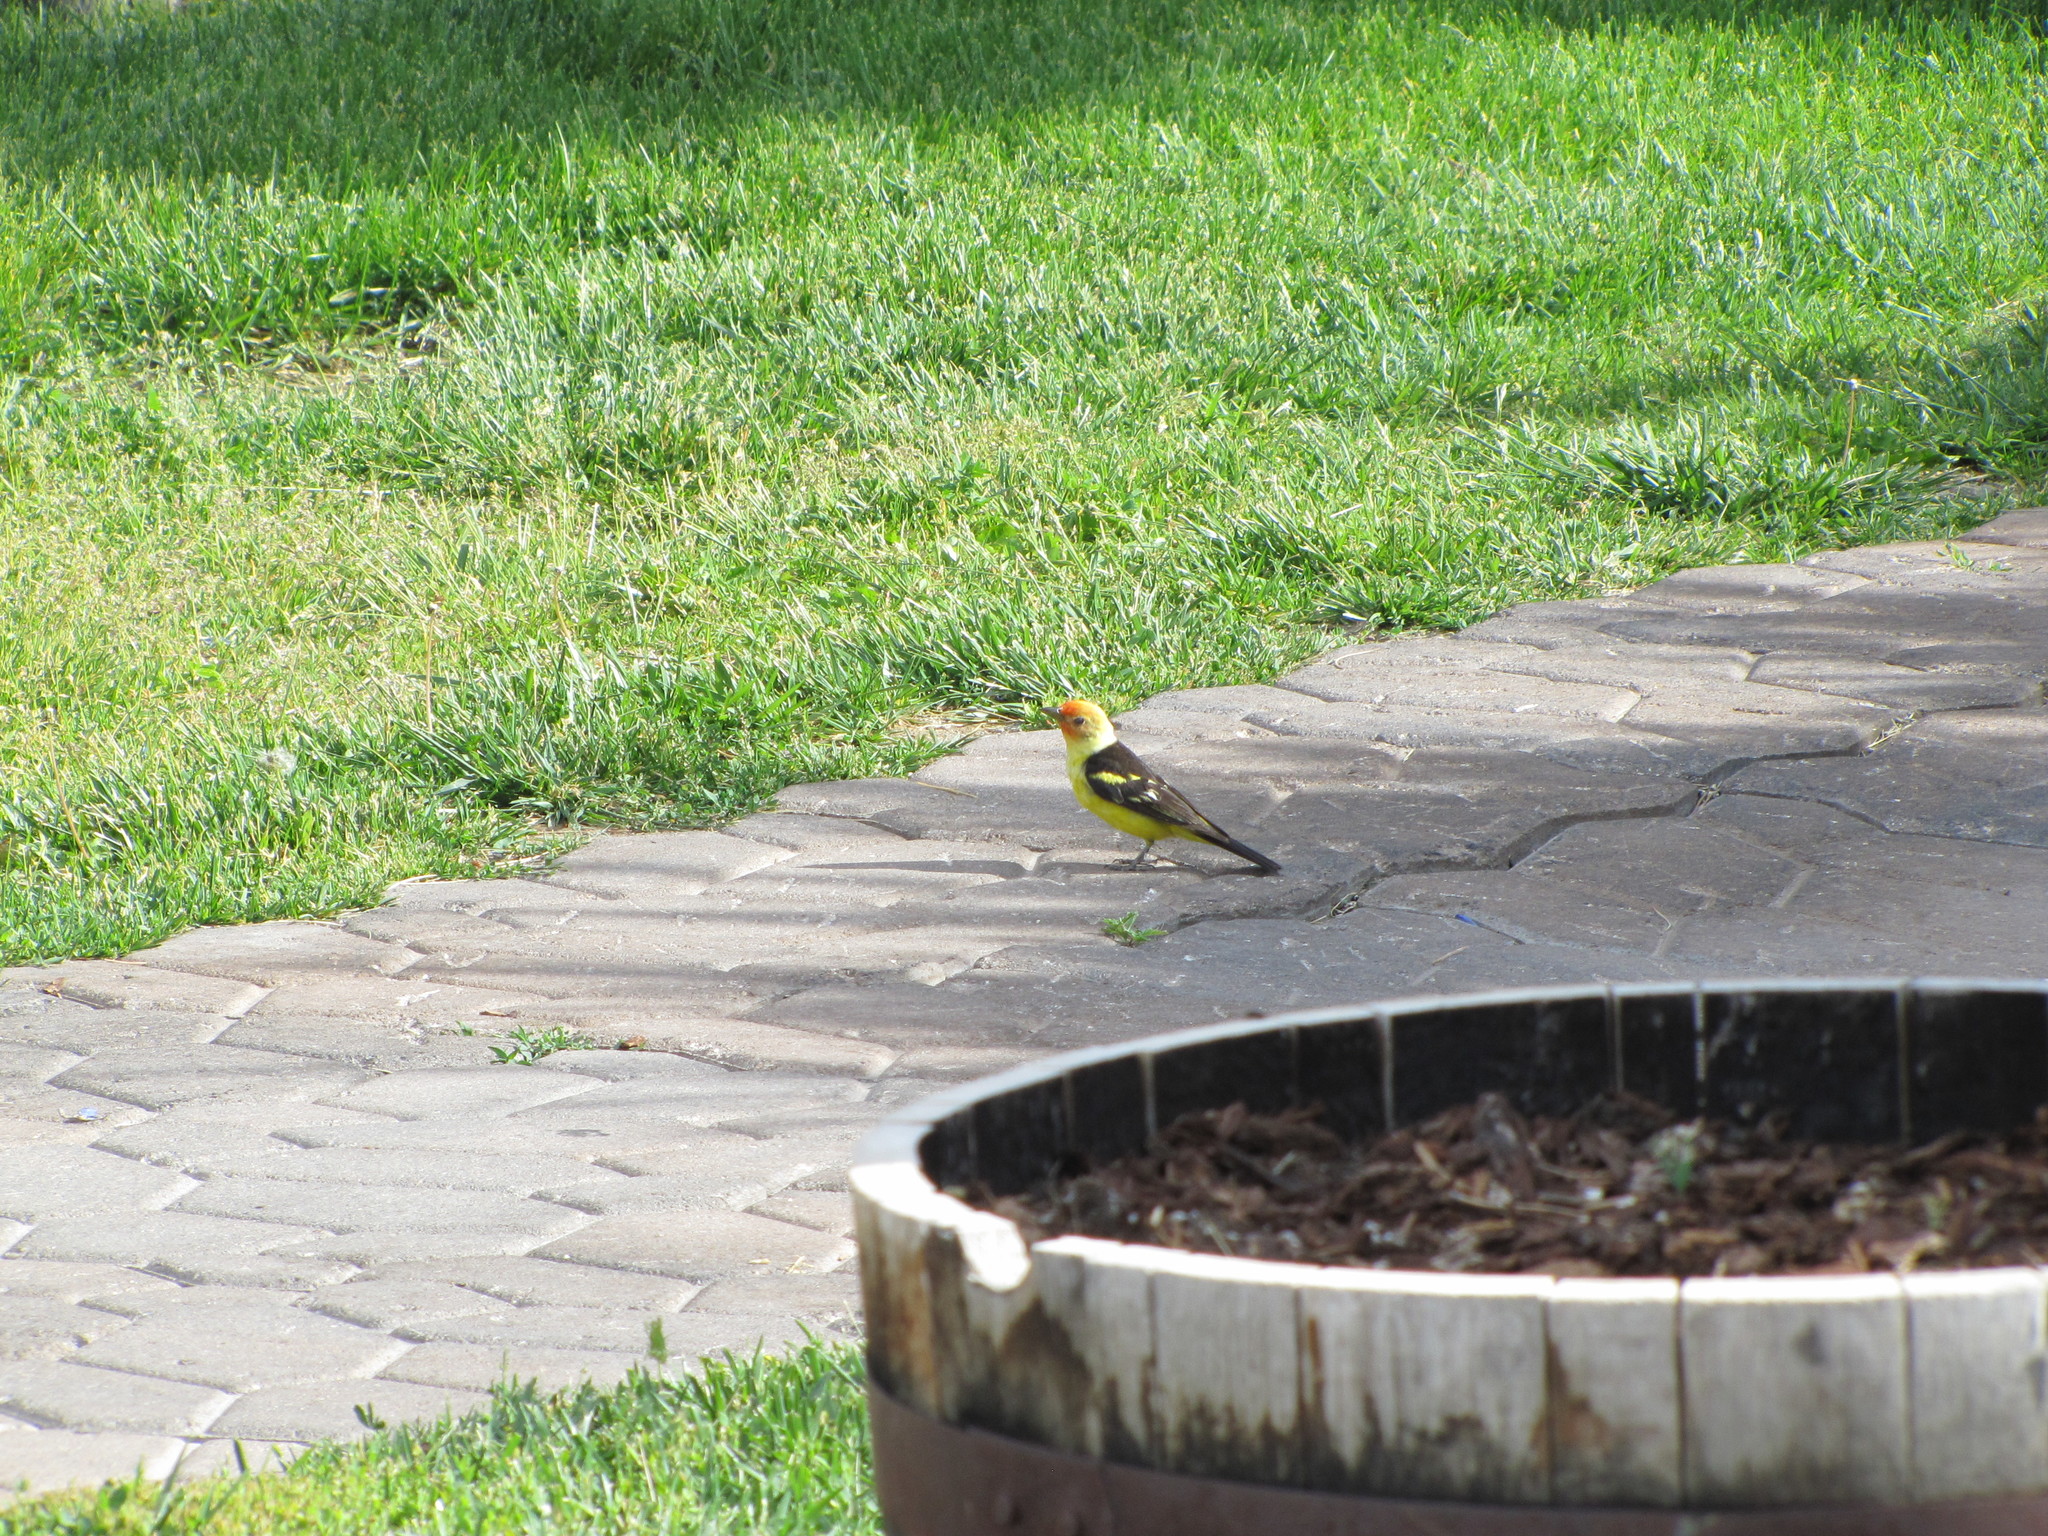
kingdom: Animalia
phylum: Chordata
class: Aves
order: Passeriformes
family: Cardinalidae
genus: Piranga
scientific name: Piranga ludoviciana
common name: Western tanager
